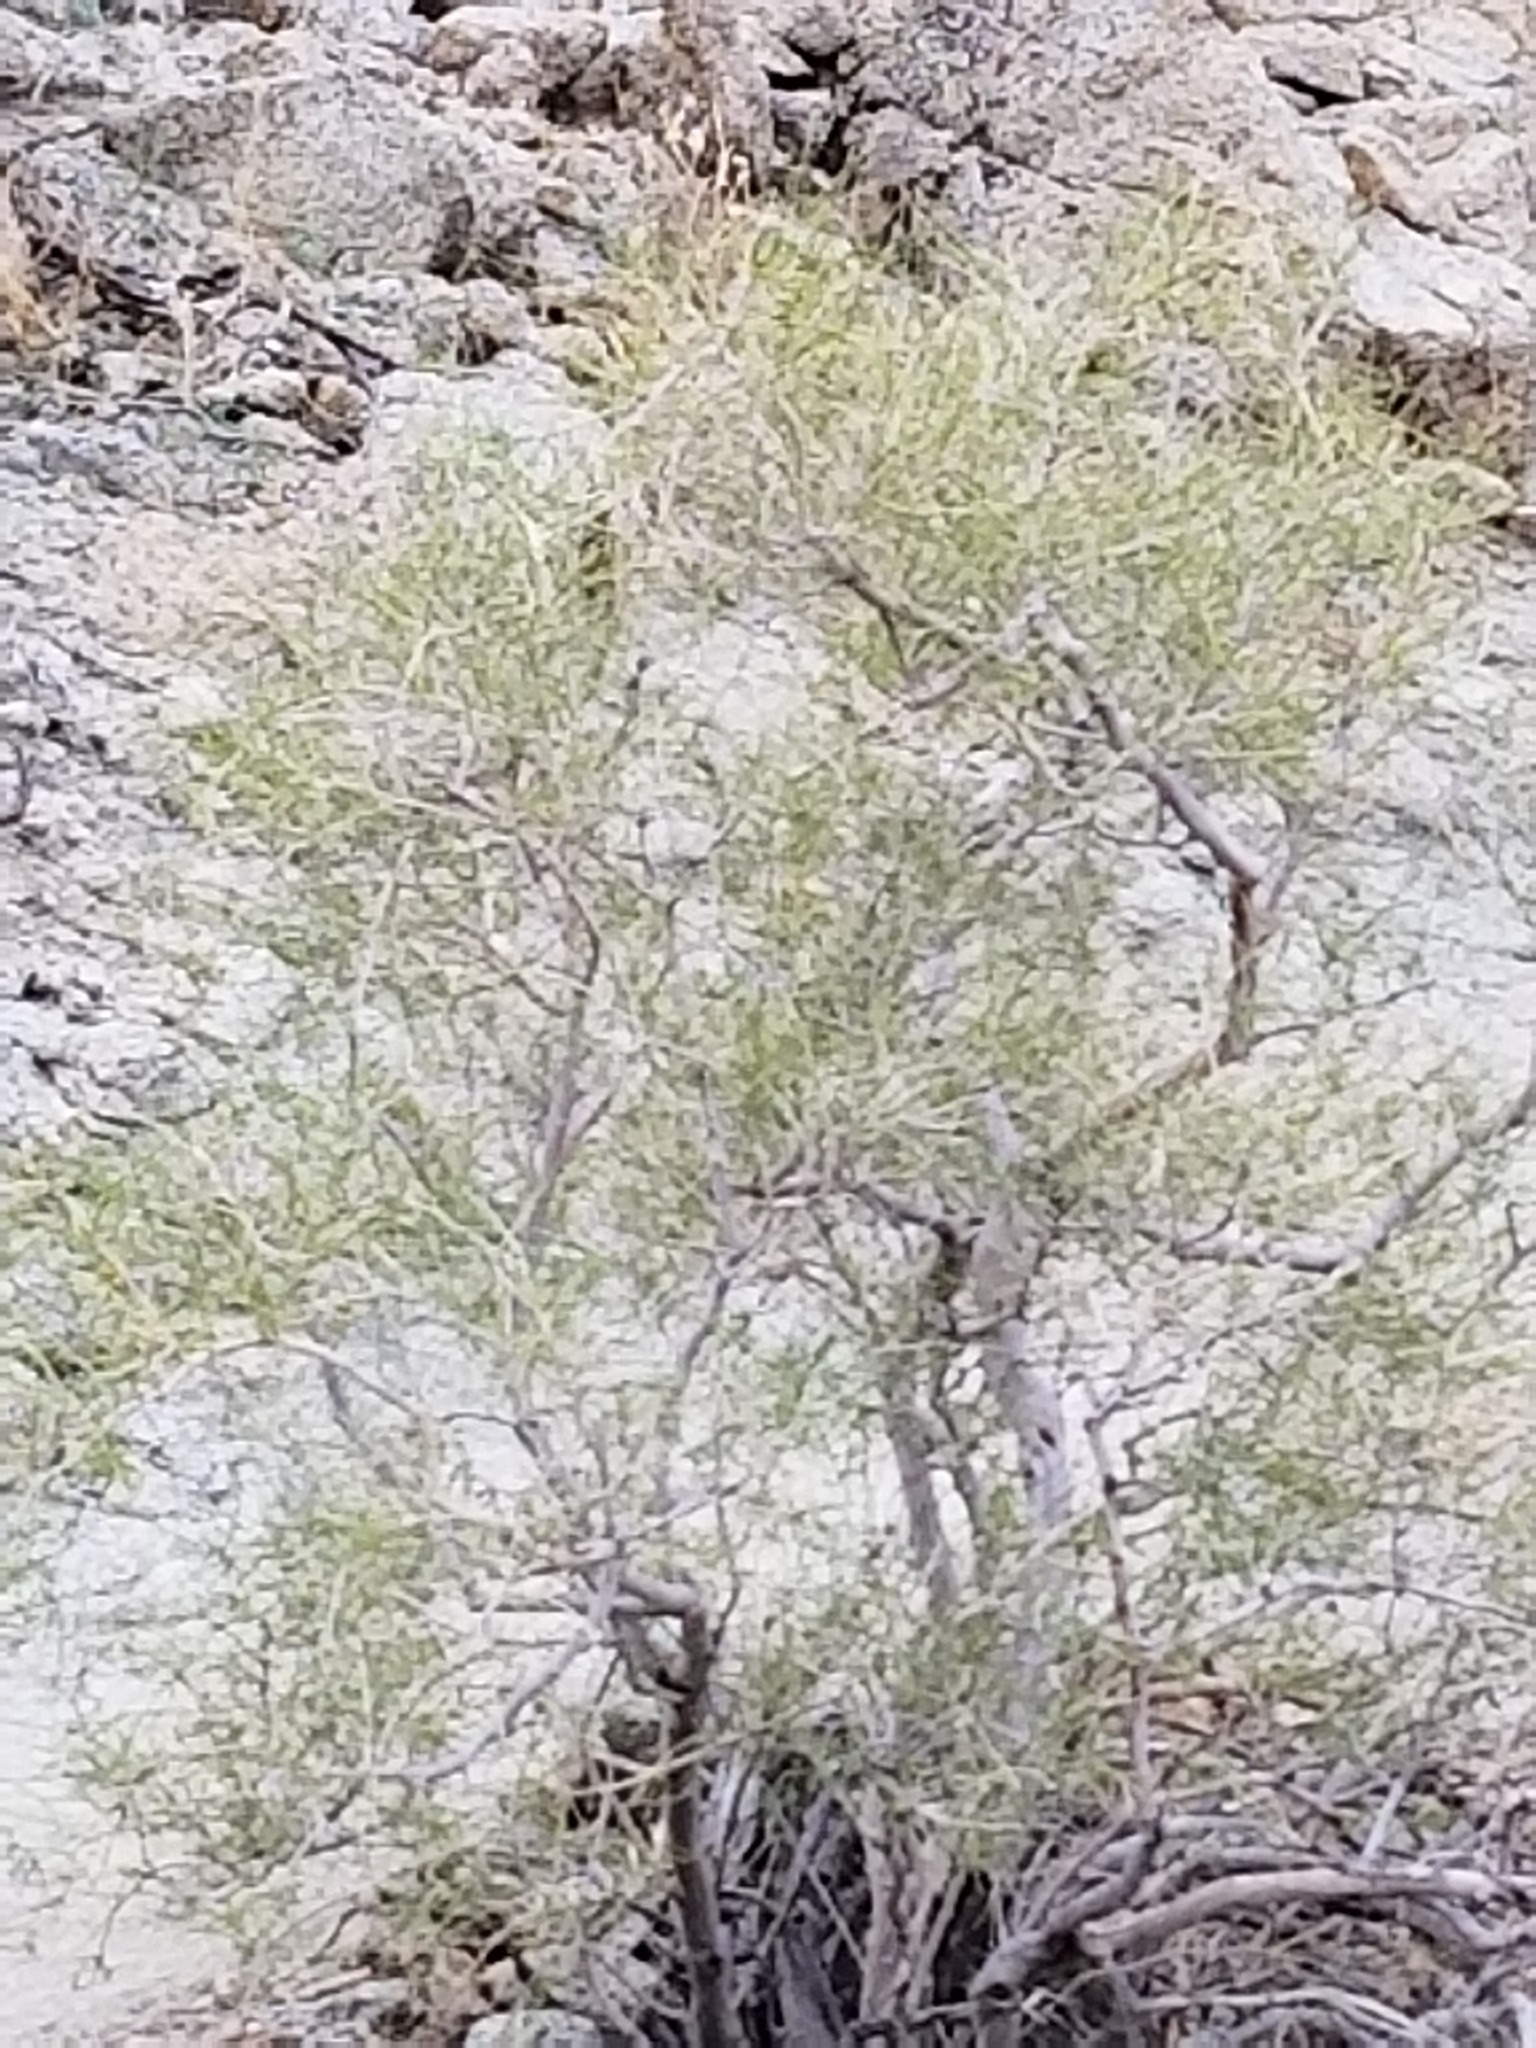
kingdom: Plantae
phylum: Tracheophyta
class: Magnoliopsida
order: Fabales
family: Fabaceae
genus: Psorothamnus
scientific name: Psorothamnus schottii
